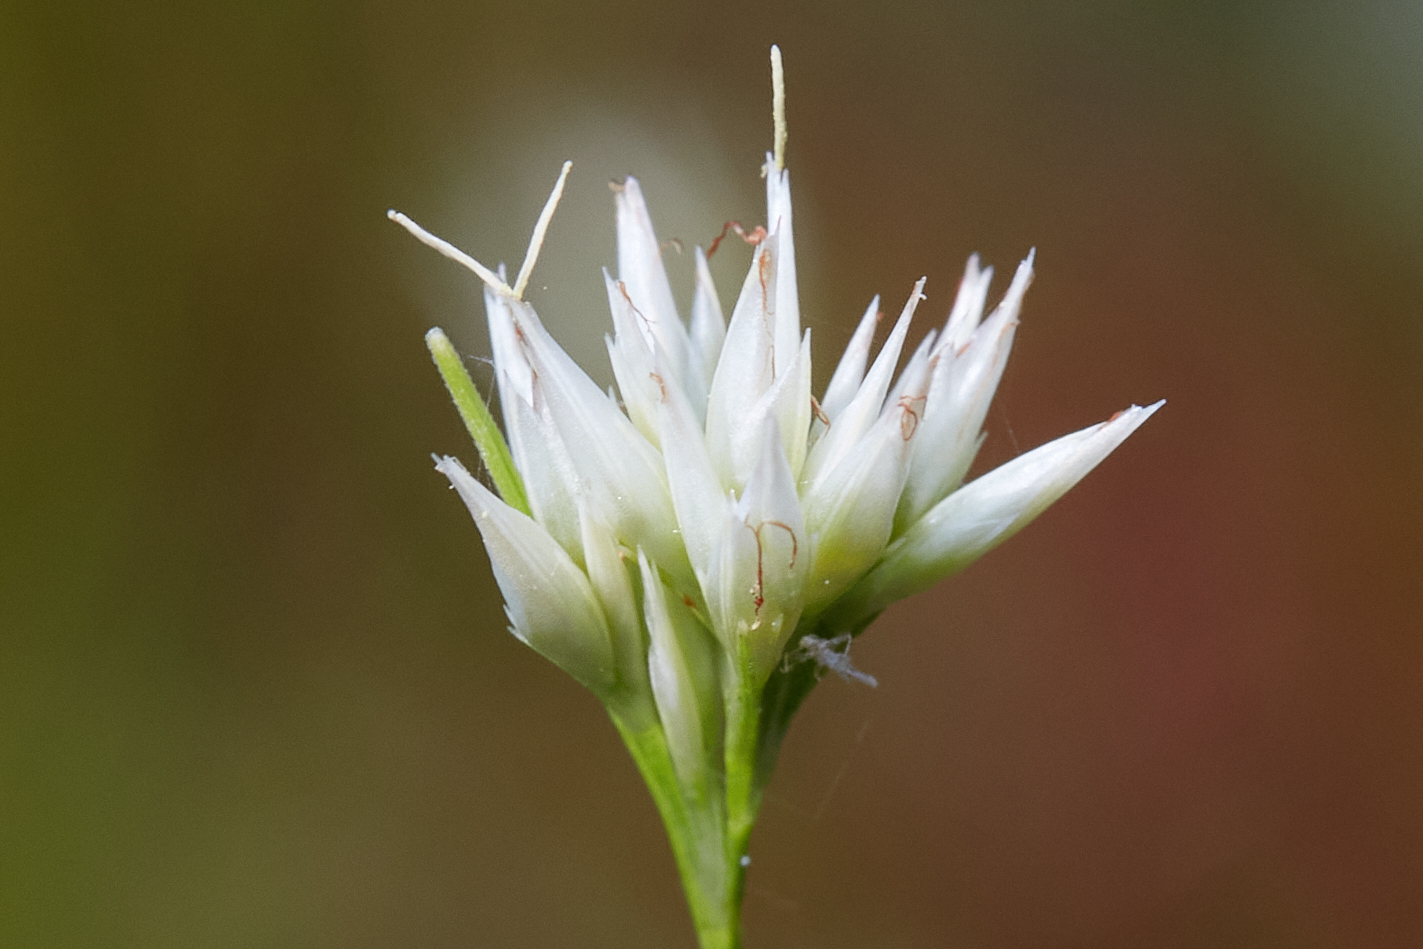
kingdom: Plantae
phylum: Tracheophyta
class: Liliopsida
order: Poales
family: Cyperaceae
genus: Rhynchospora
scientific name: Rhynchospora alba
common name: White beak-sedge
